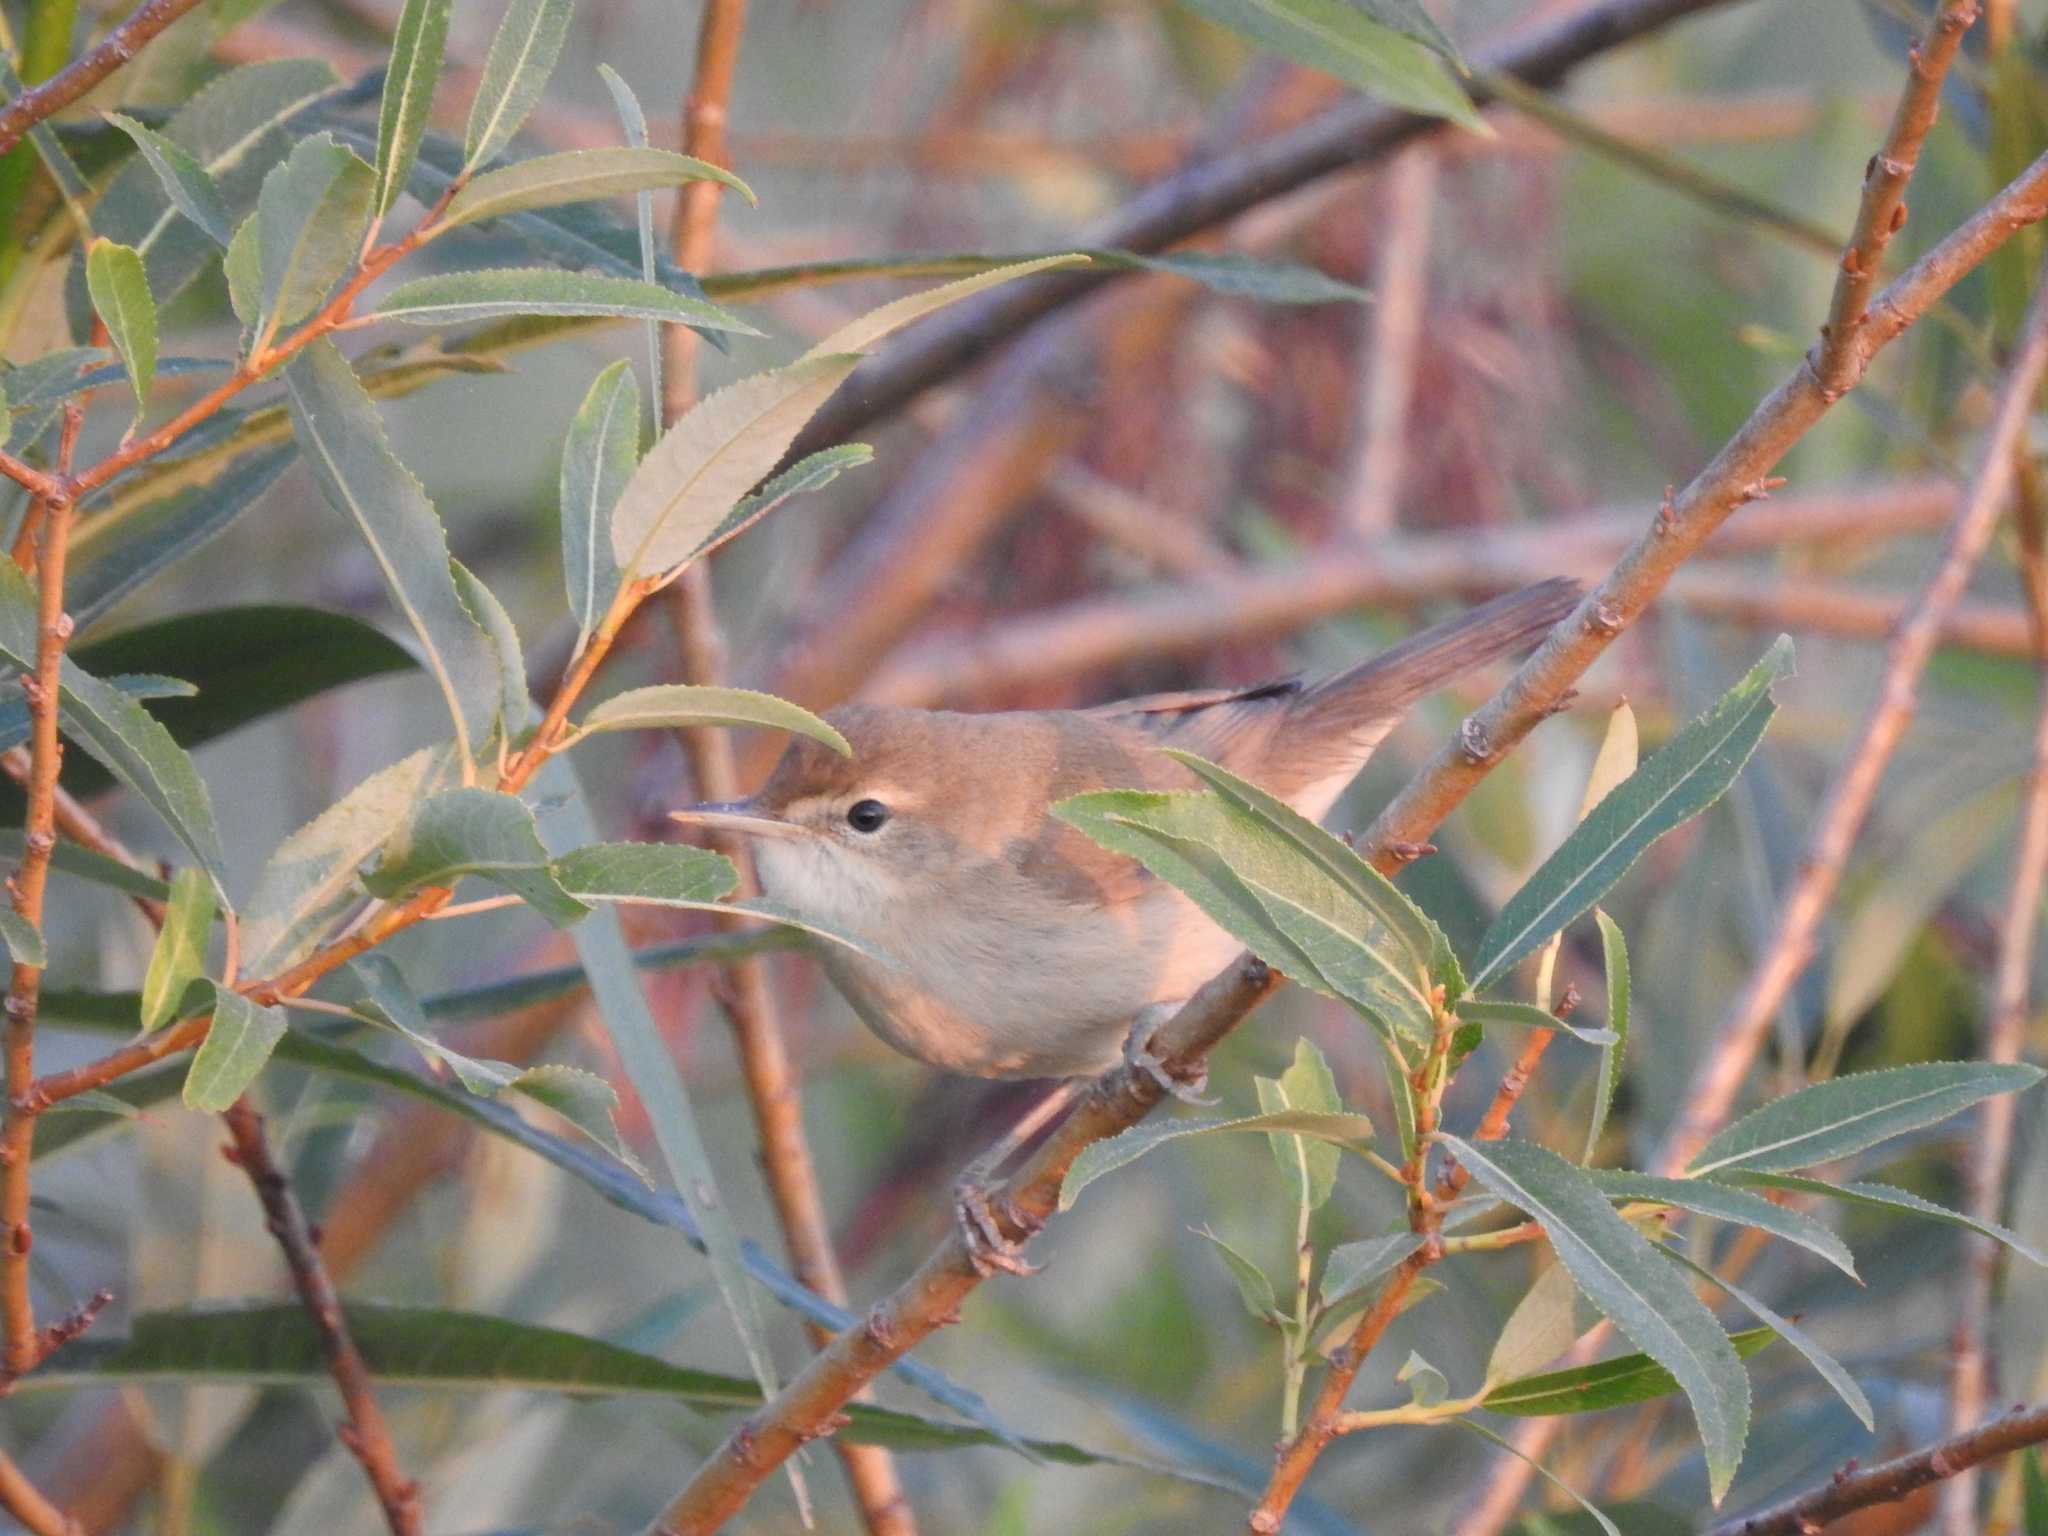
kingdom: Animalia
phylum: Chordata
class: Aves
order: Passeriformes
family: Acrocephalidae
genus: Acrocephalus
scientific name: Acrocephalus dumetorum
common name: Blyth's reed warbler
